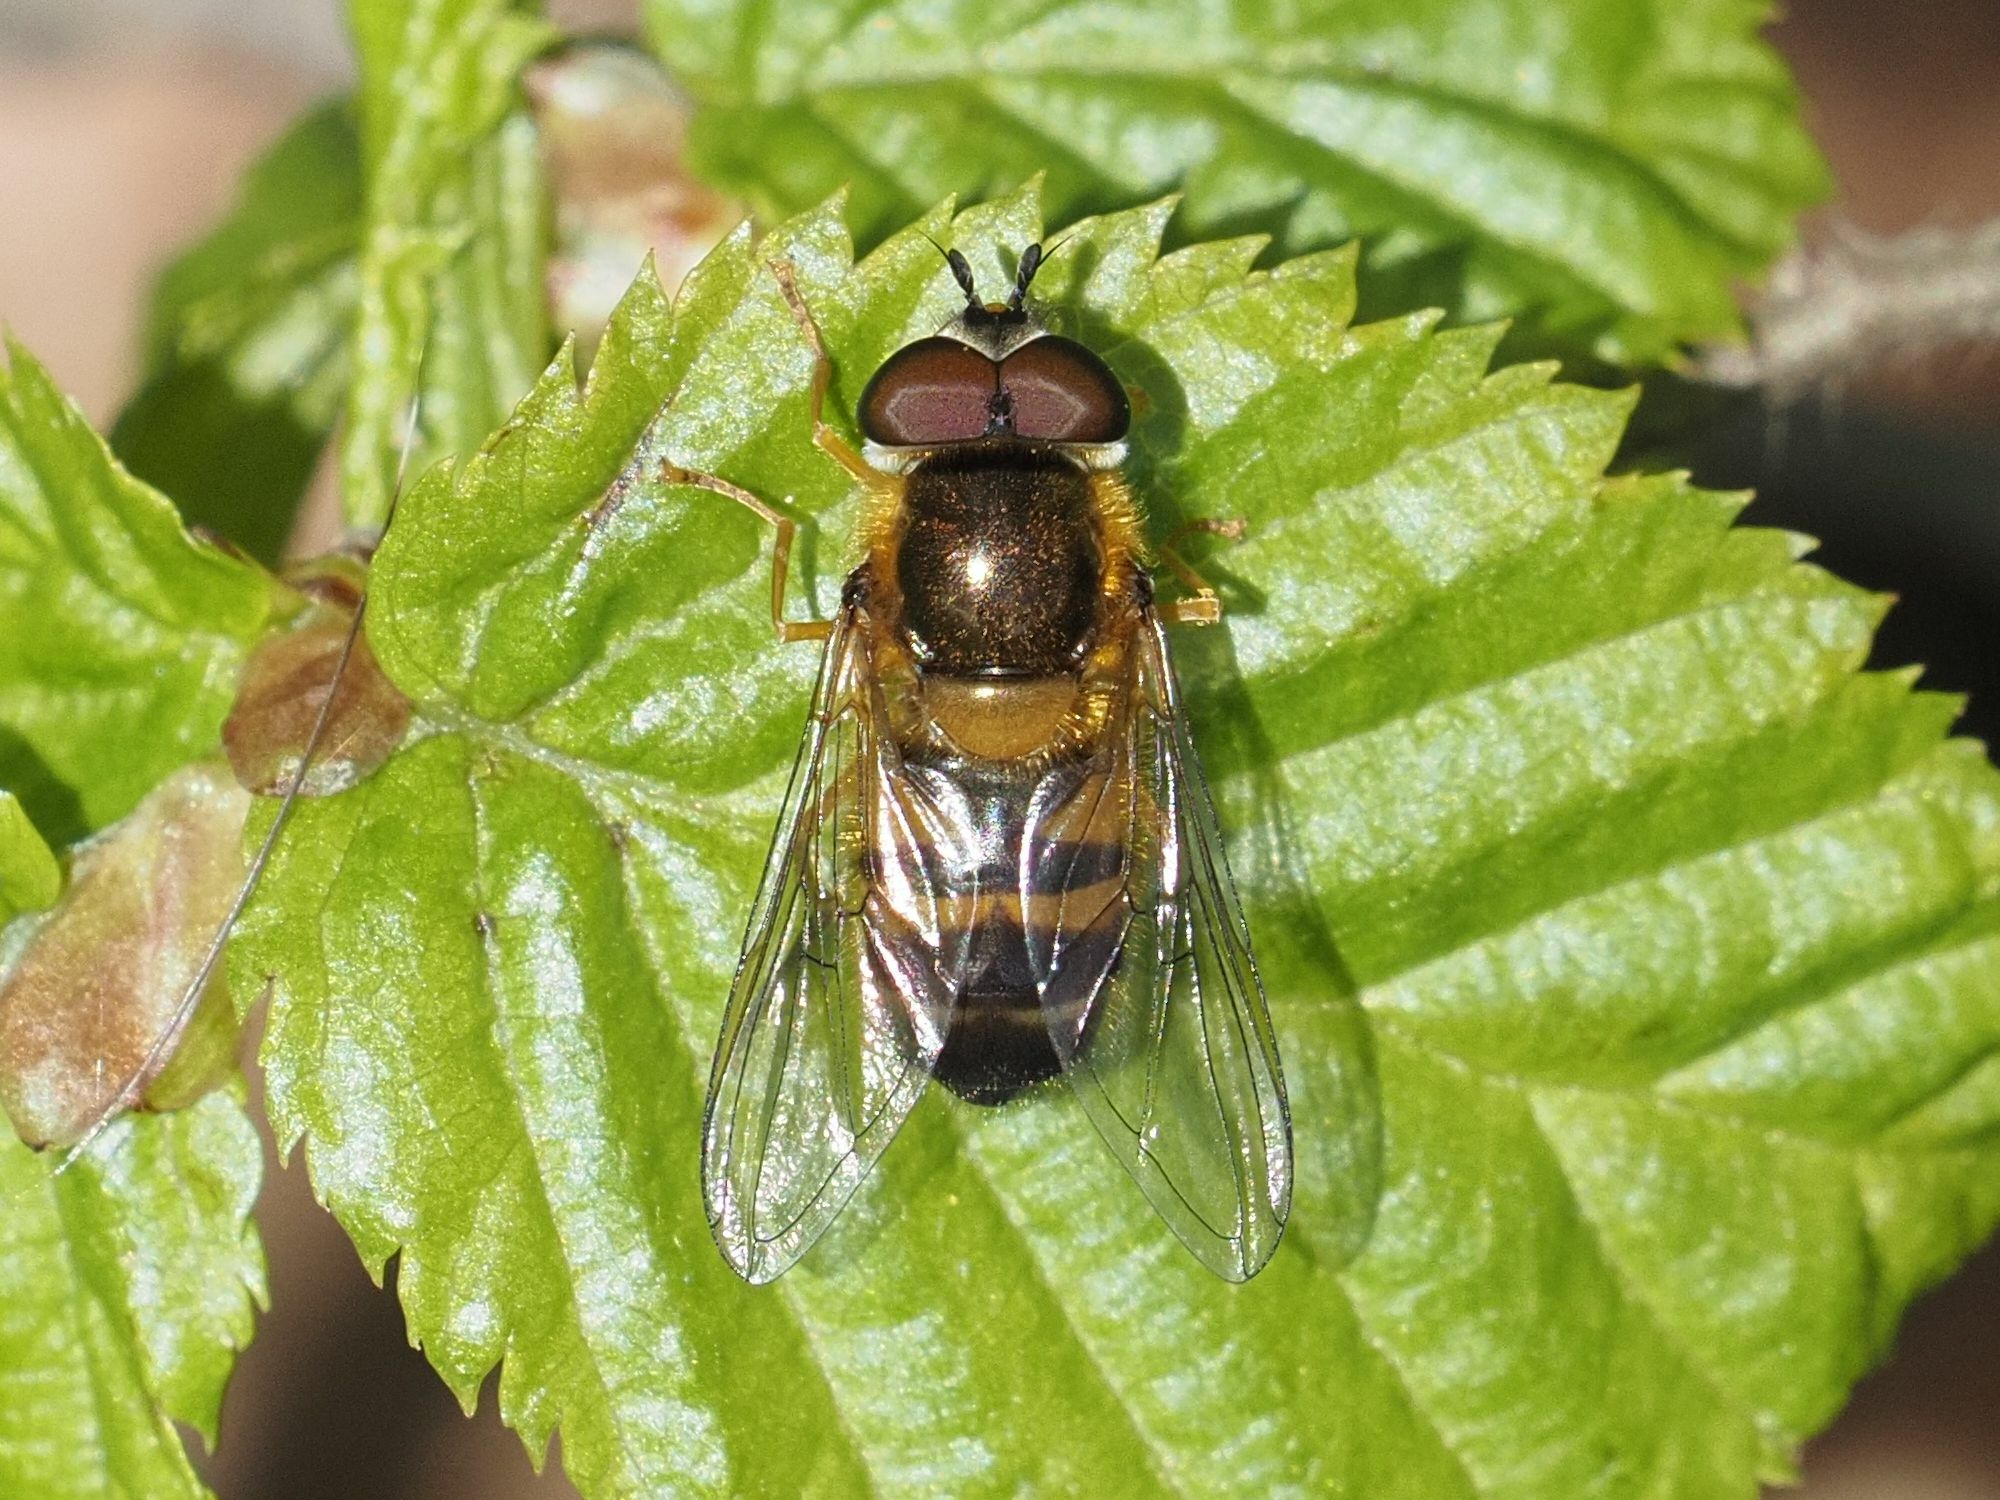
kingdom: Animalia
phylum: Arthropoda
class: Insecta
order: Diptera
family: Syrphidae
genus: Epistrophe
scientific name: Epistrophe eligans
